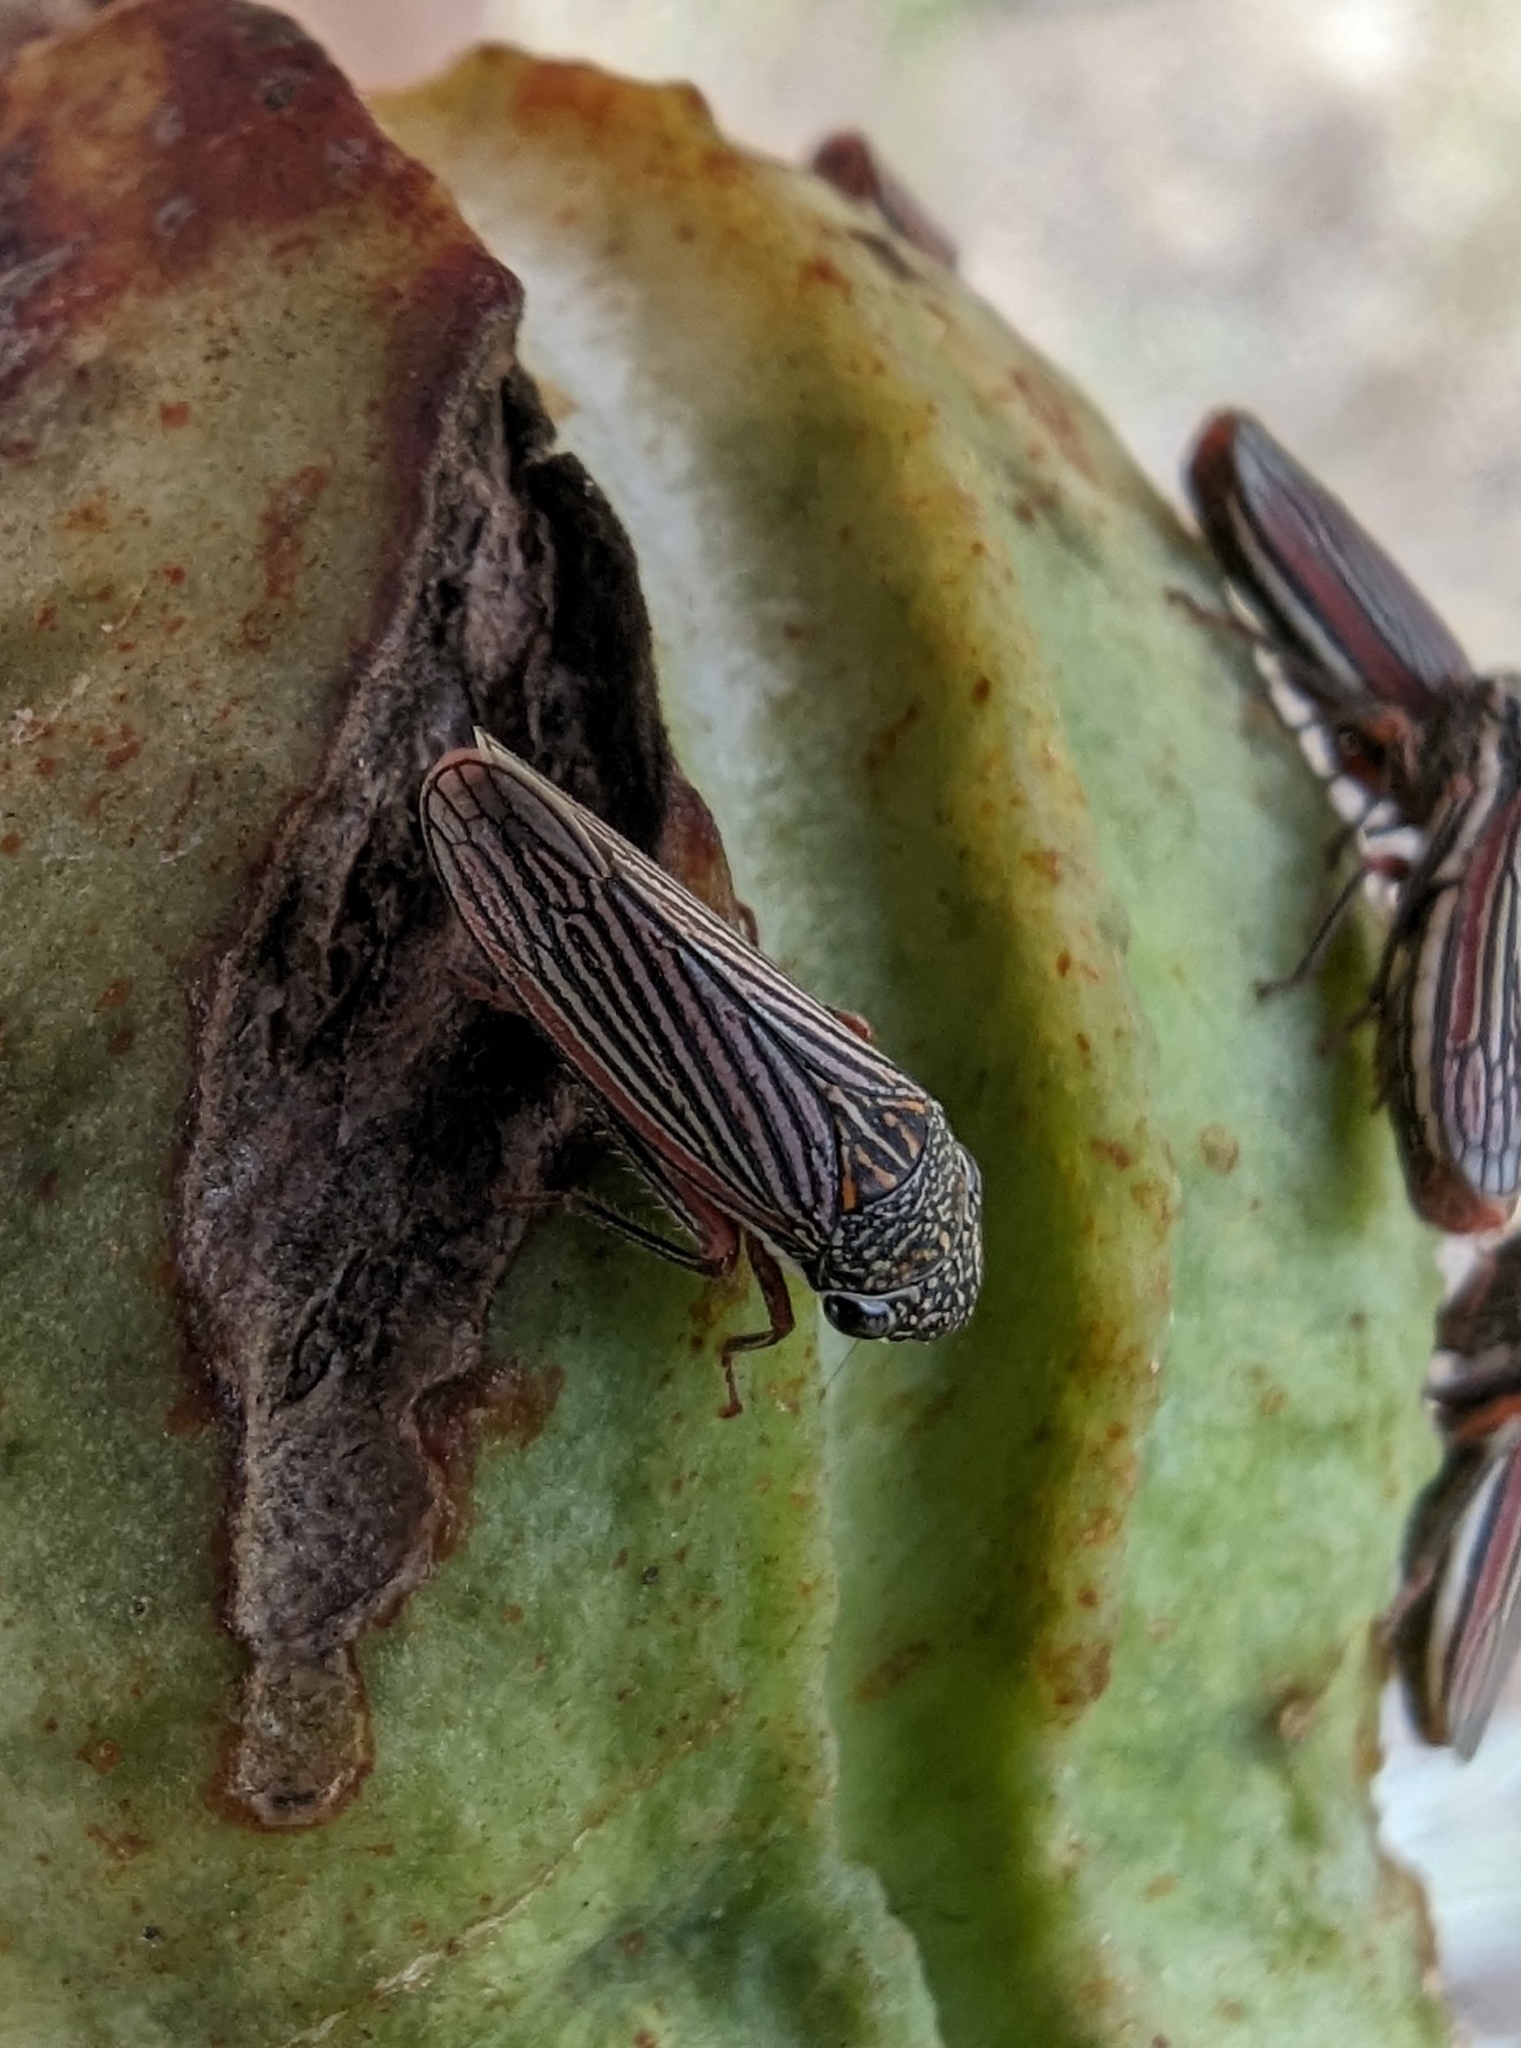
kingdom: Animalia
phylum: Arthropoda
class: Insecta
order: Hemiptera
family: Cicadellidae
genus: Cuerna
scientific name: Cuerna costalis
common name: Lateral-lined sharpshooter
